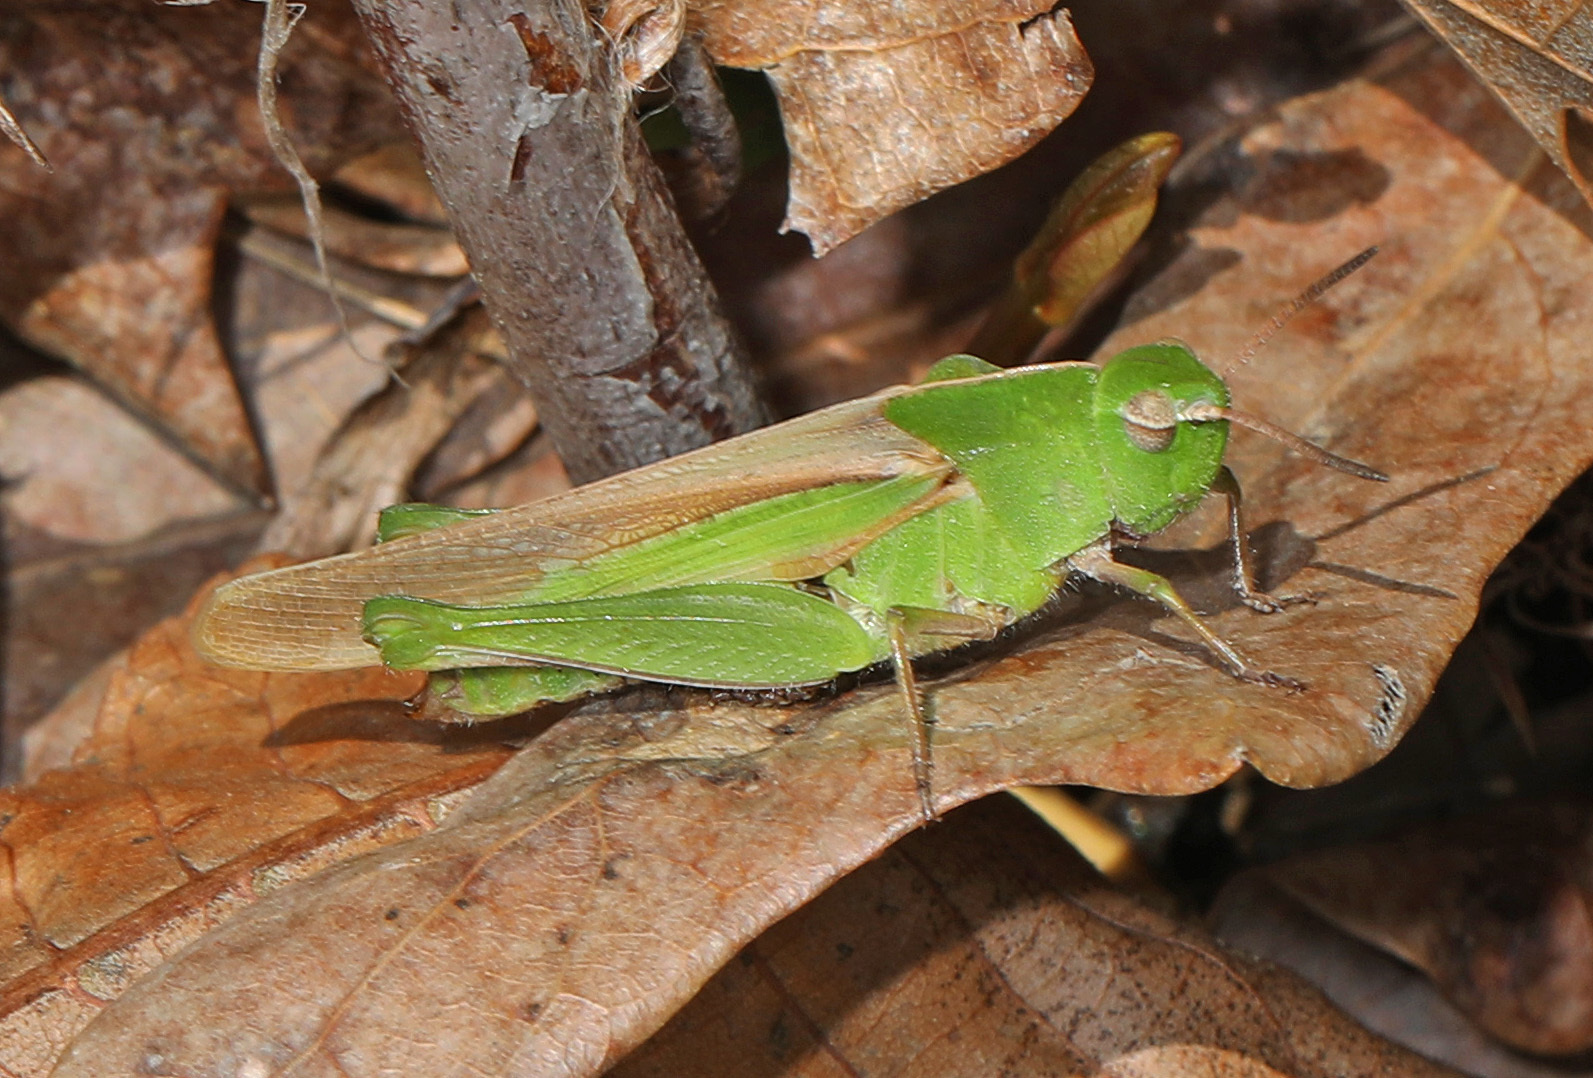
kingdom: Animalia
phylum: Arthropoda
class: Insecta
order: Orthoptera
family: Acrididae
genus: Chortophaga
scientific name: Chortophaga viridifasciata
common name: Green-striped grasshopper
